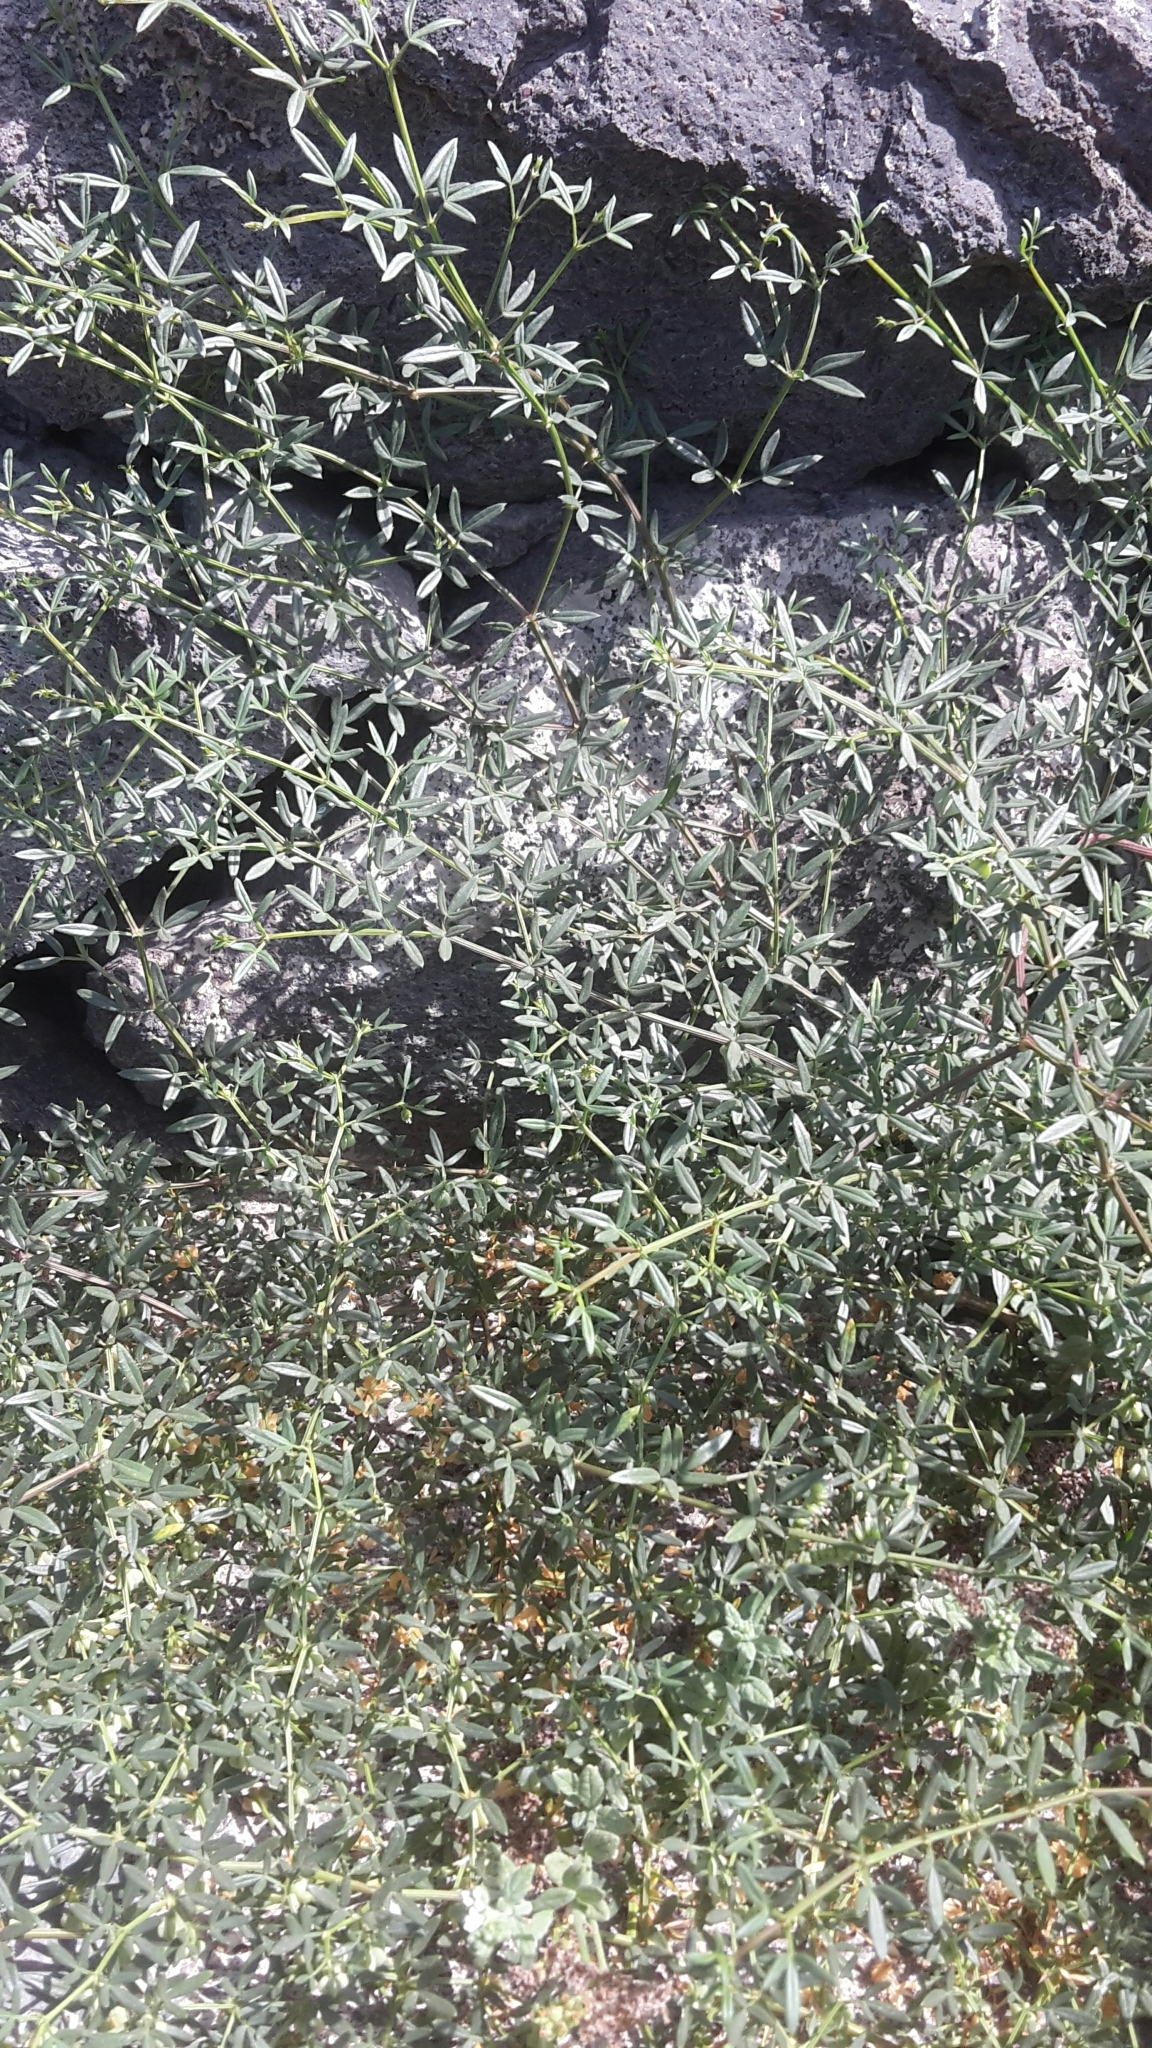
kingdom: Plantae
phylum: Tracheophyta
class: Magnoliopsida
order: Zygophyllales
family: Zygophyllaceae
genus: Fagonia
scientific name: Fagonia cretica
